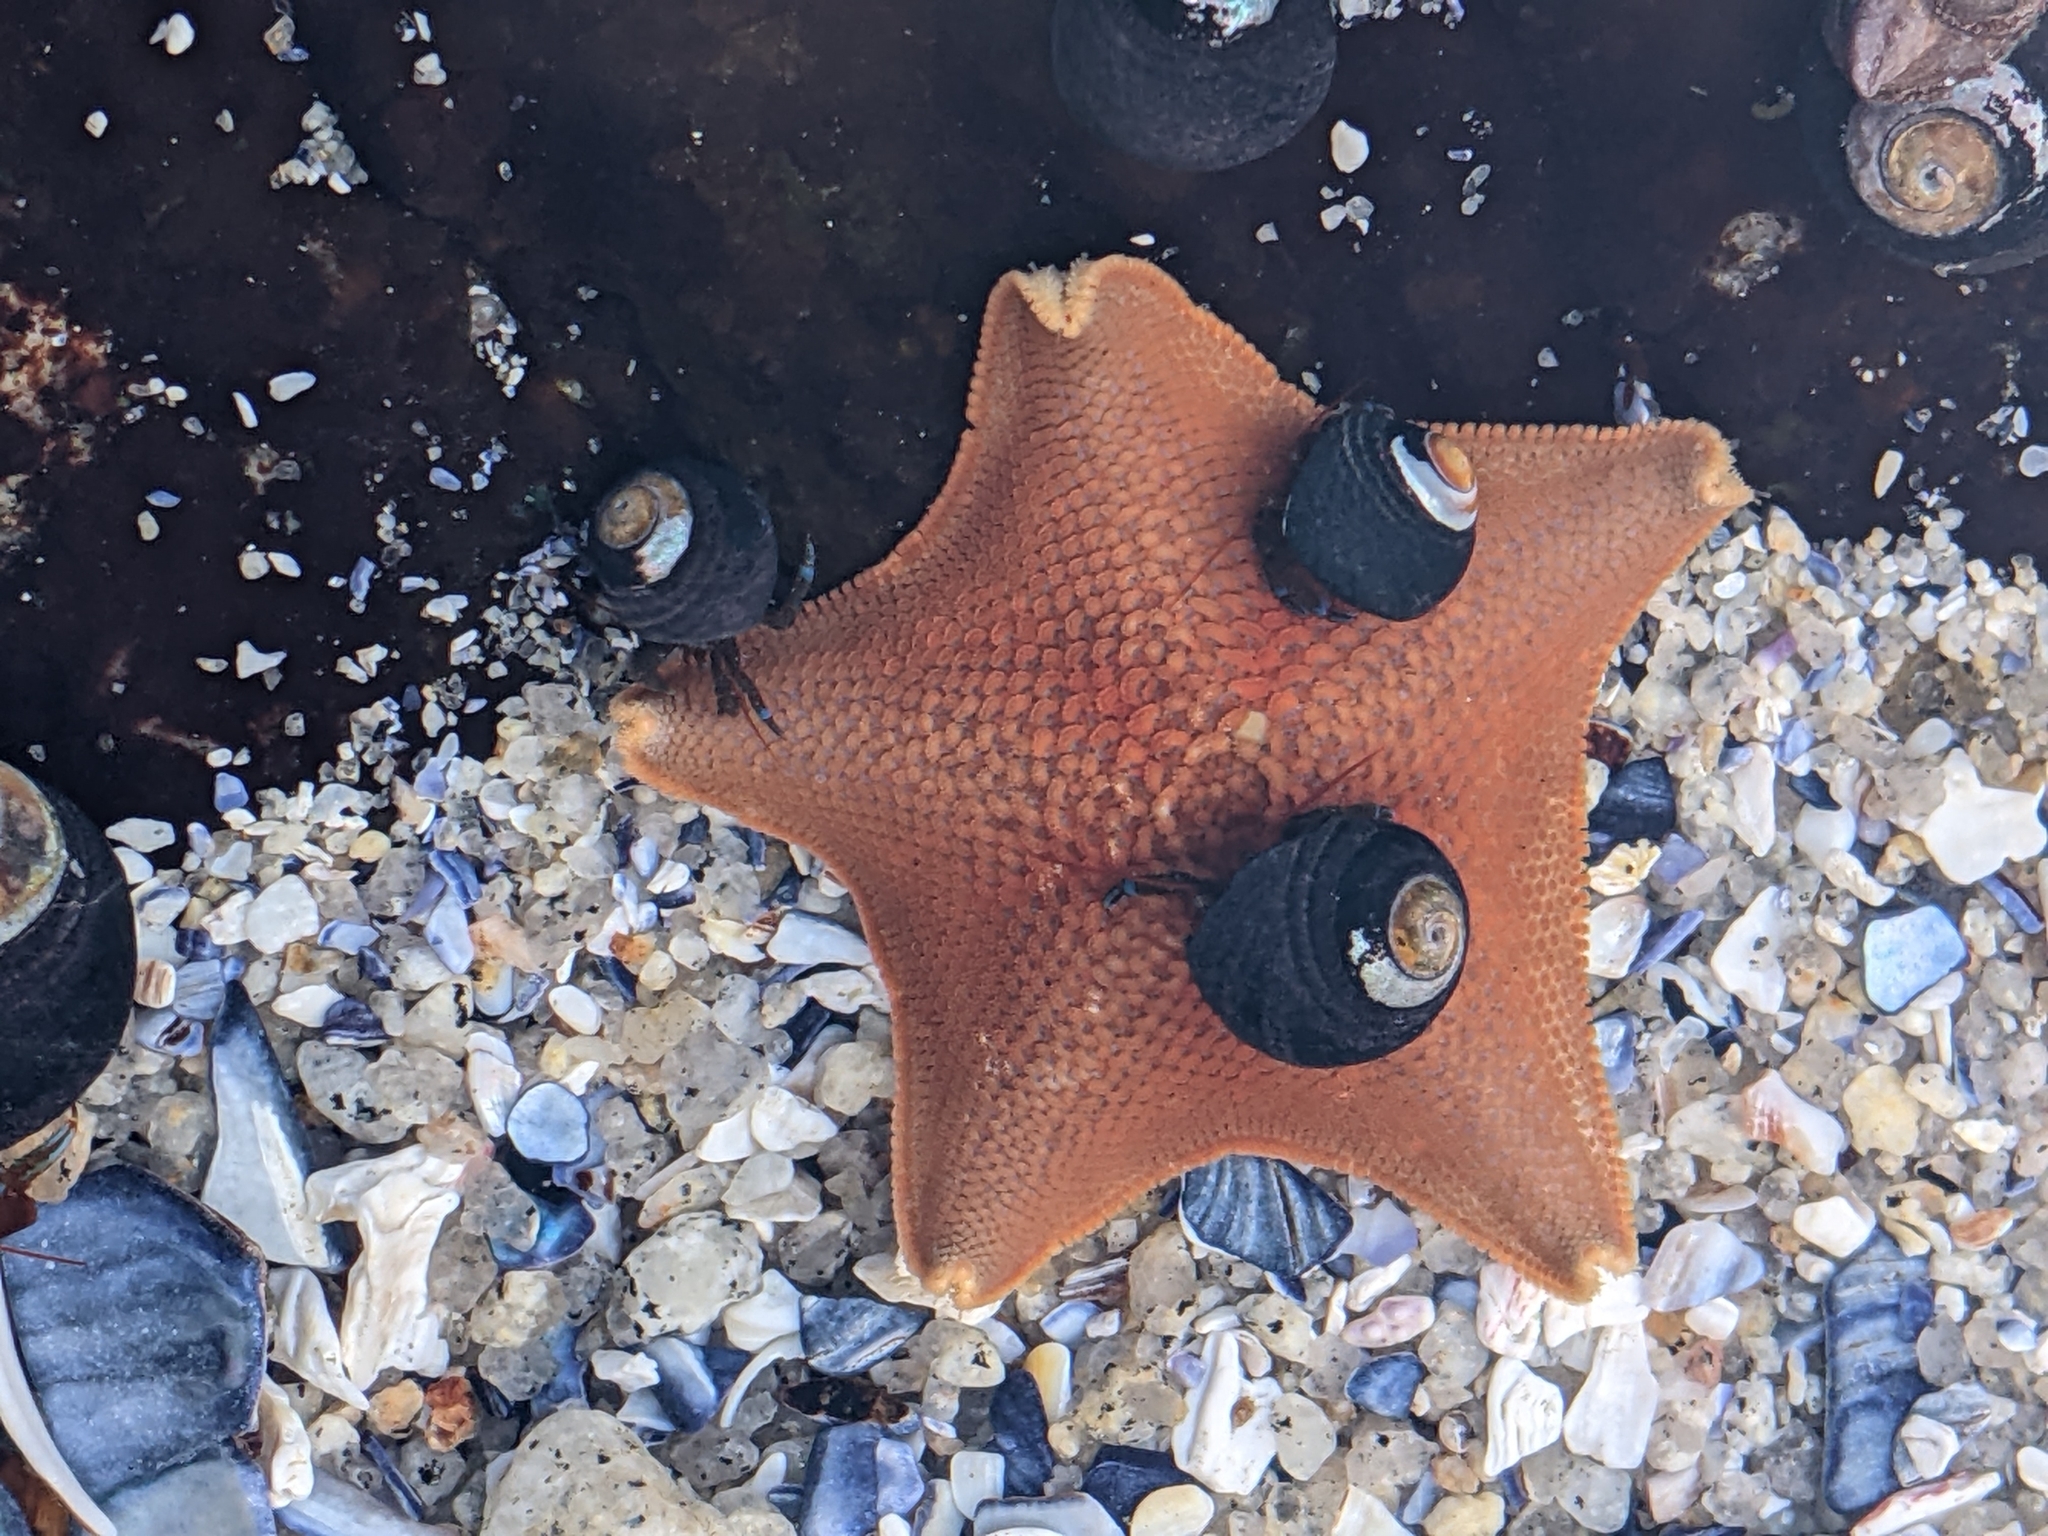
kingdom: Animalia
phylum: Echinodermata
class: Asteroidea
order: Valvatida
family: Asterinidae
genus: Patiria
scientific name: Patiria miniata
